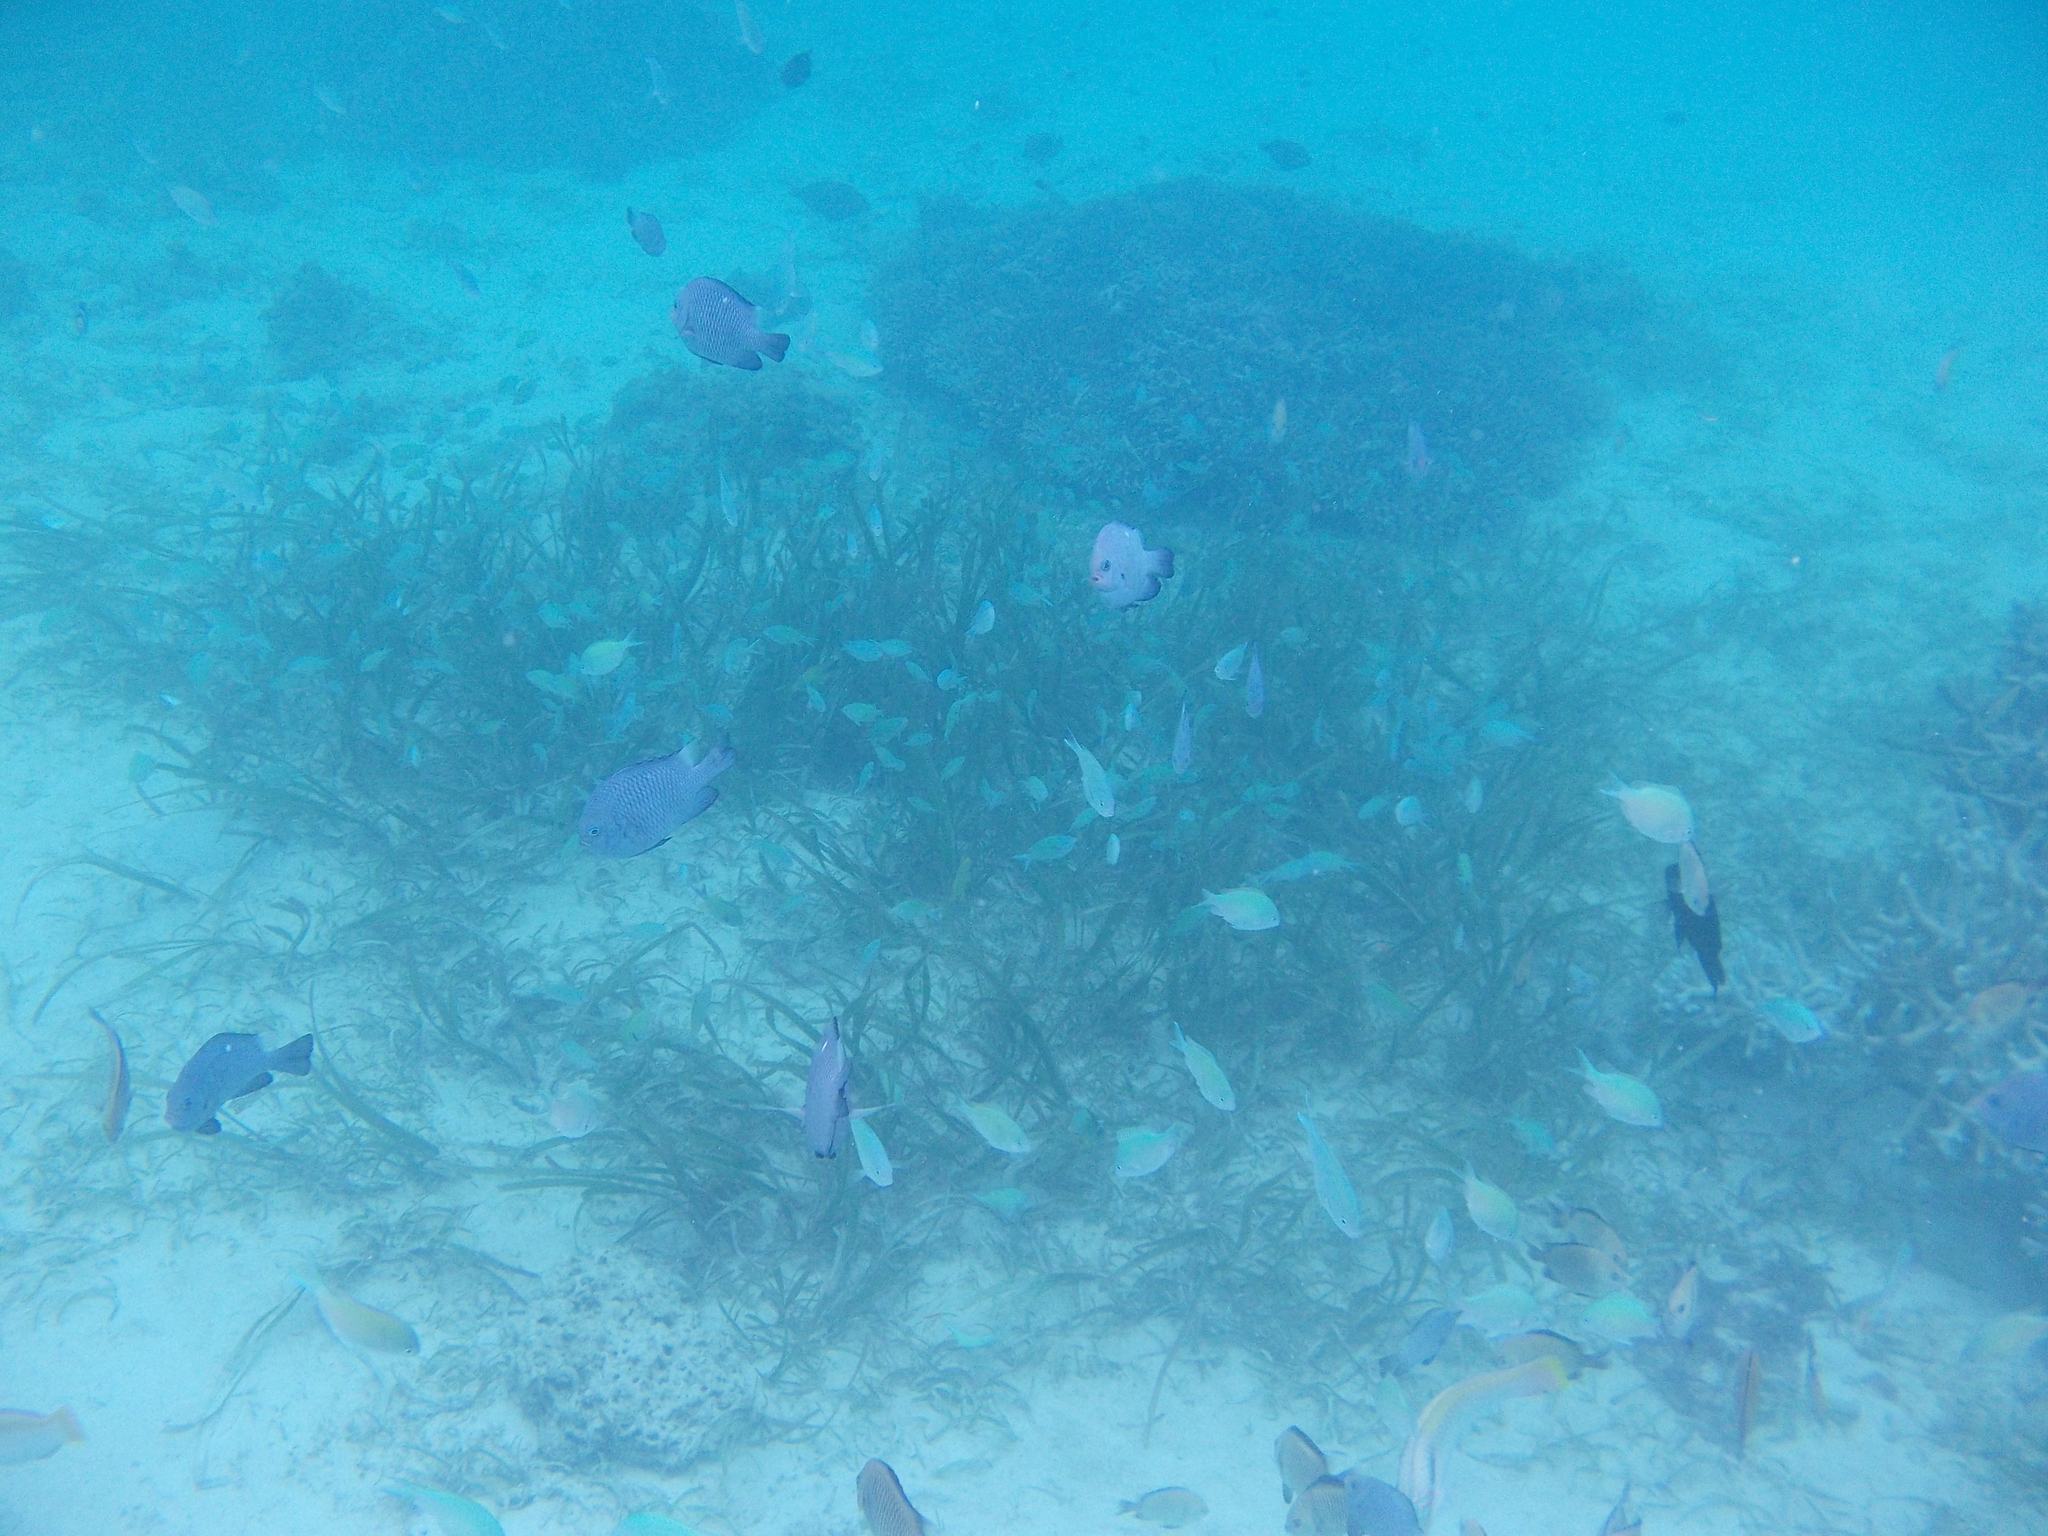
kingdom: Animalia
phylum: Chordata
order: Perciformes
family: Pomacentridae
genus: Dascyllus
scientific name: Dascyllus trimaculatus
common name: Threespot dascyllus
